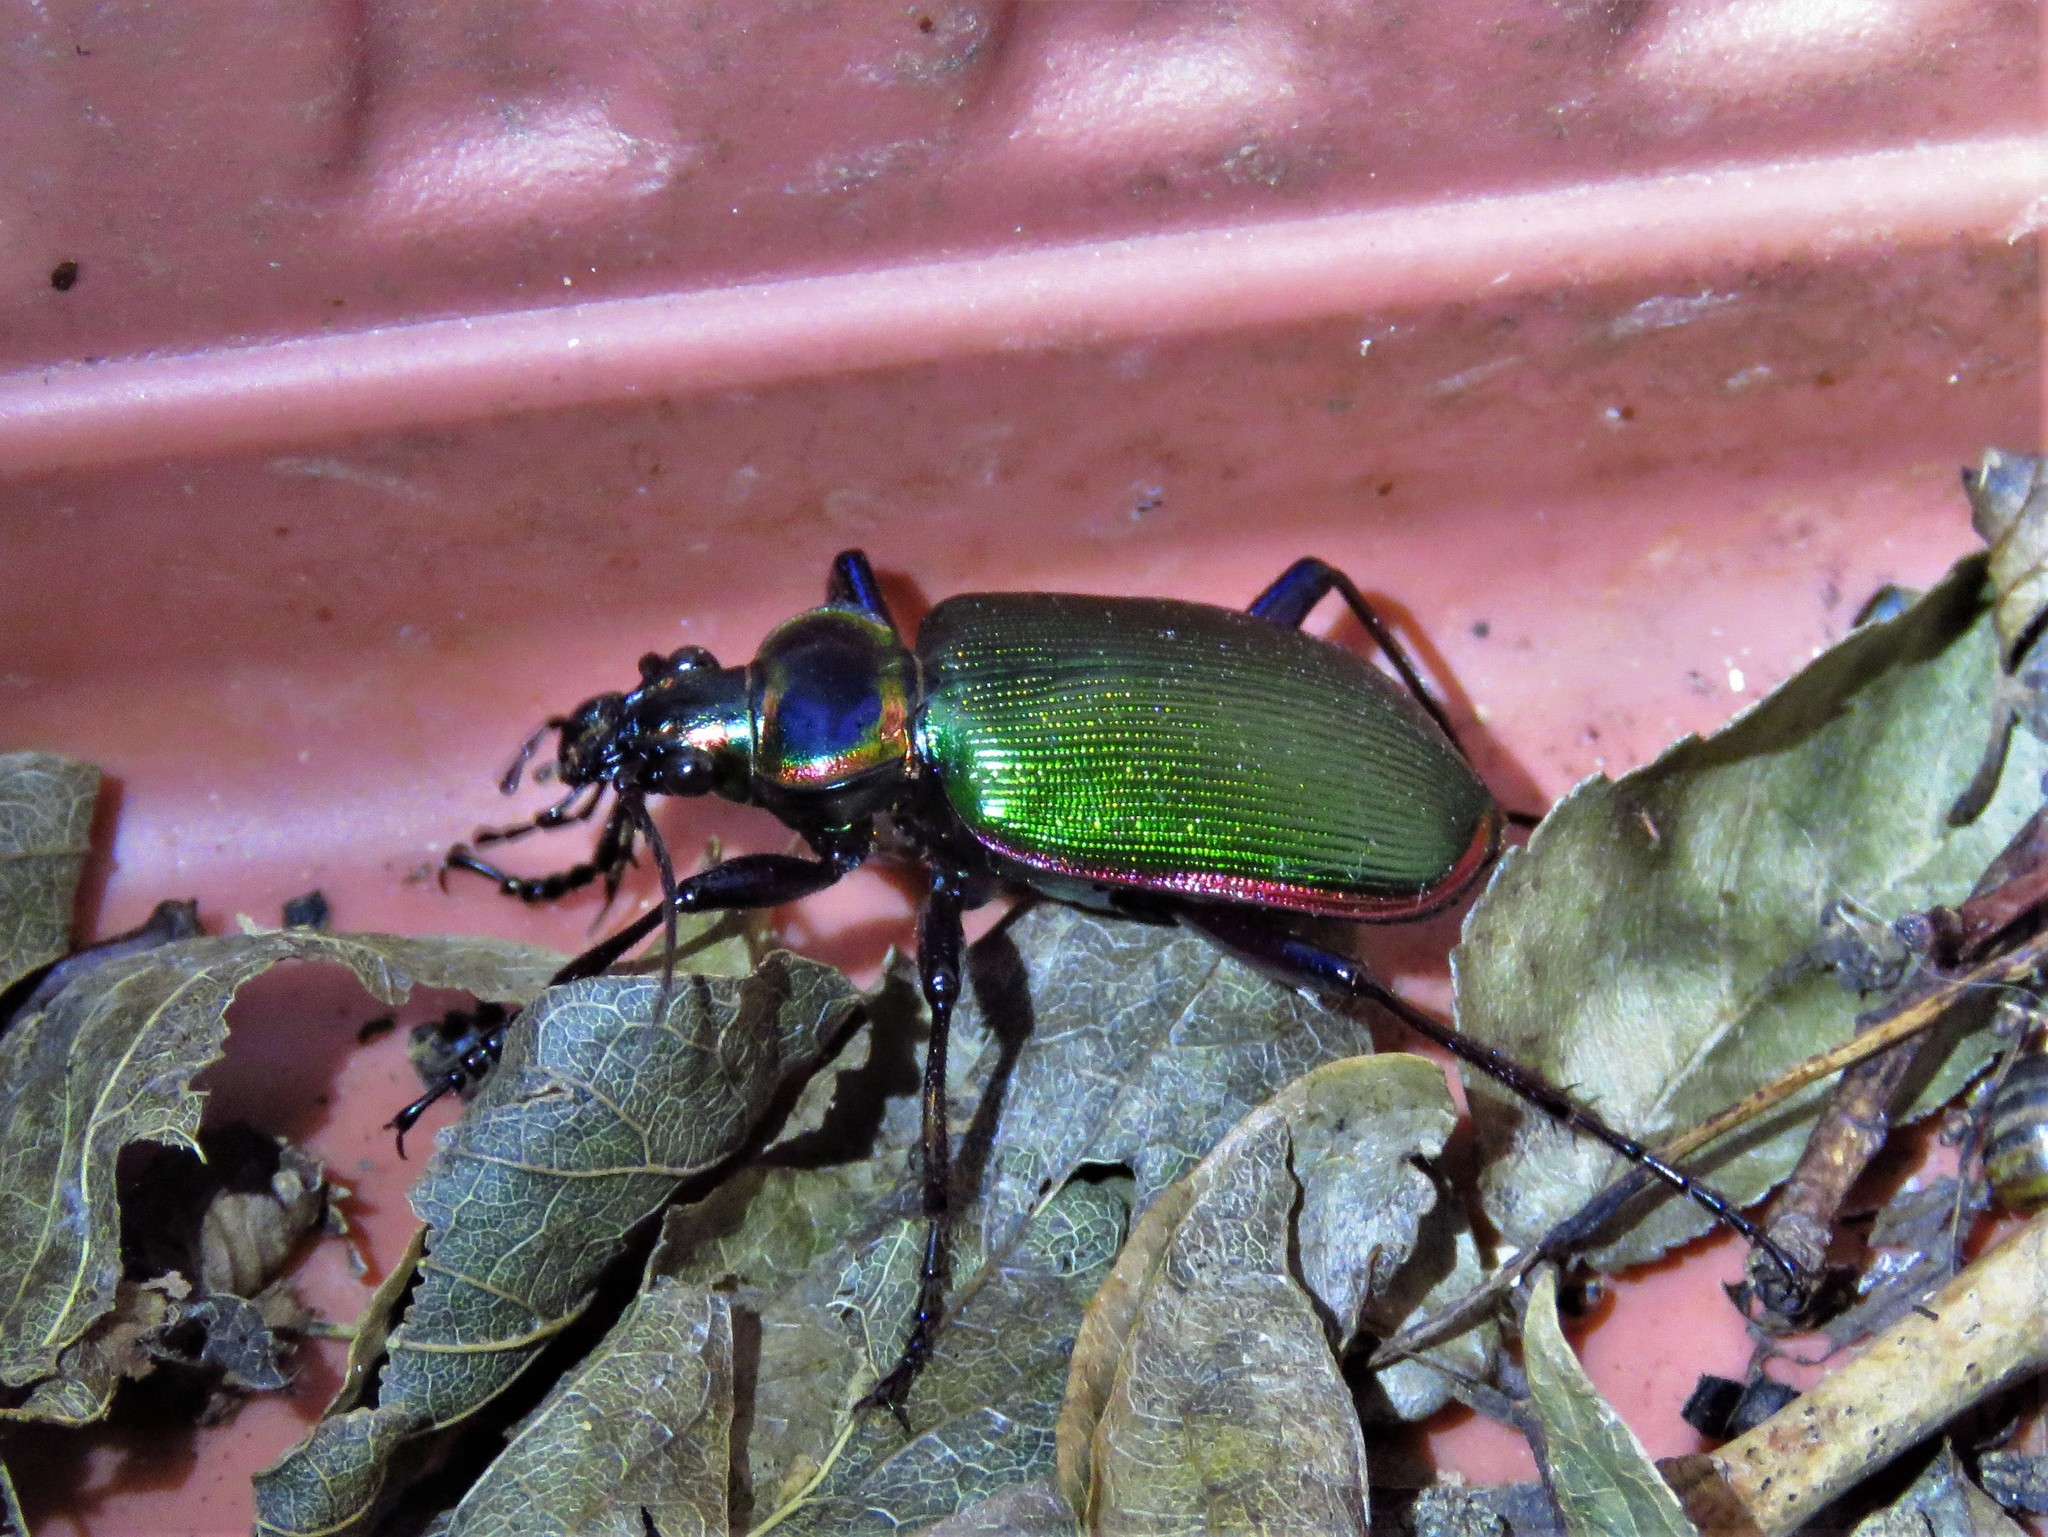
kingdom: Animalia
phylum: Arthropoda
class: Insecta
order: Coleoptera
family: Carabidae
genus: Calosoma
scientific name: Calosoma scrutator
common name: Fiery searcher beetle
